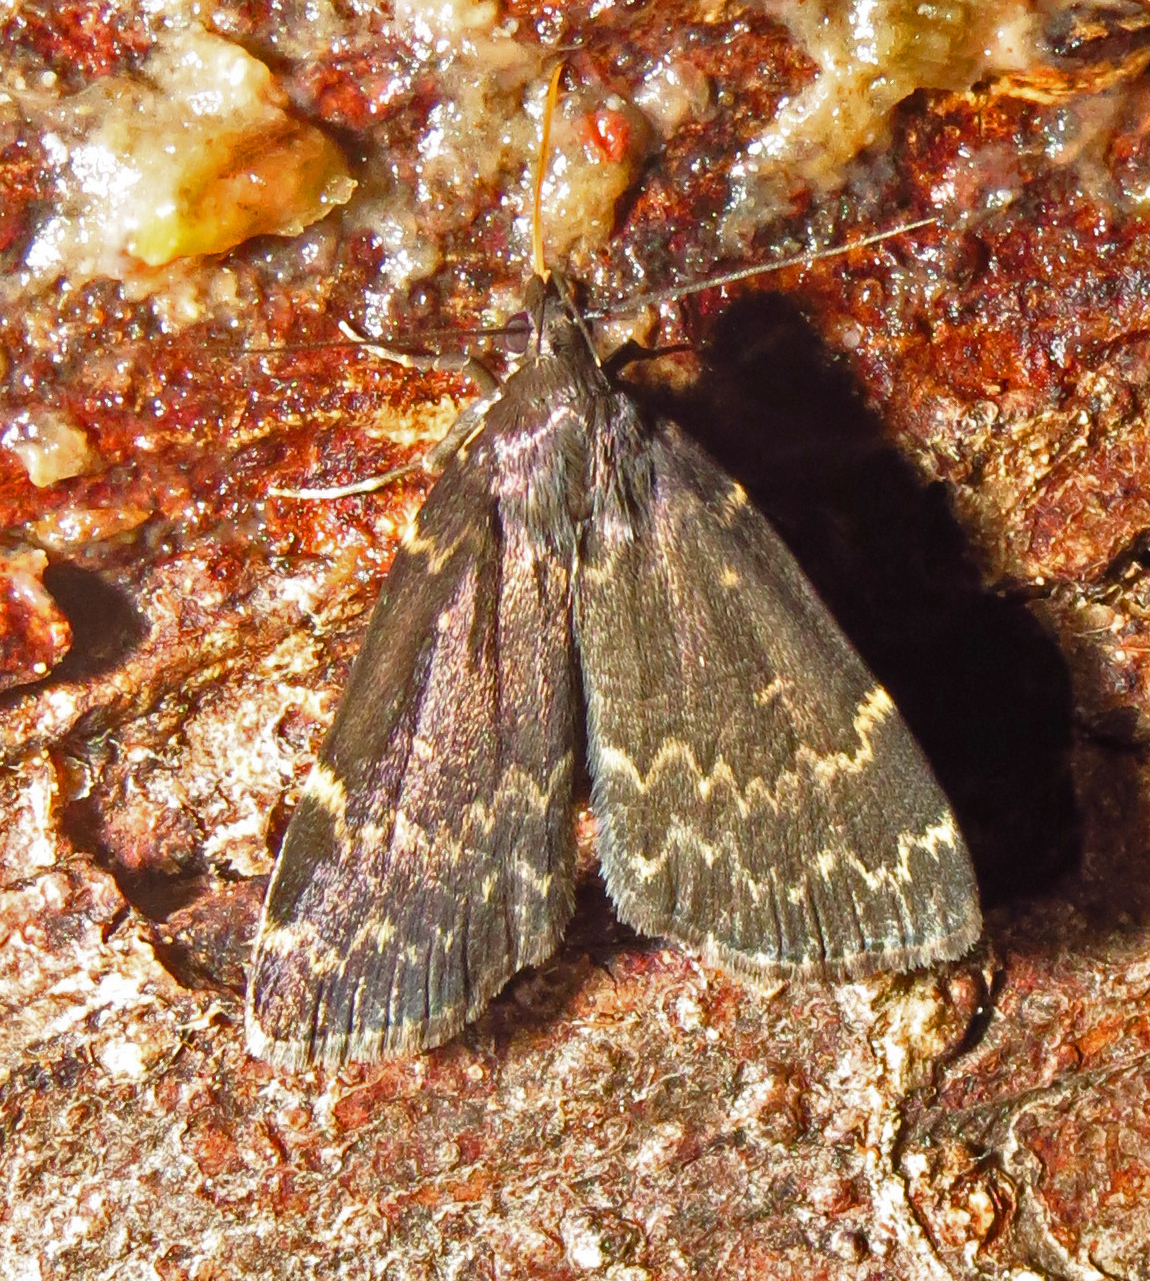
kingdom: Animalia
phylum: Arthropoda
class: Insecta
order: Lepidoptera
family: Erebidae
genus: Idia
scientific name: Idia lubricalis
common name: Twin-striped tabby
